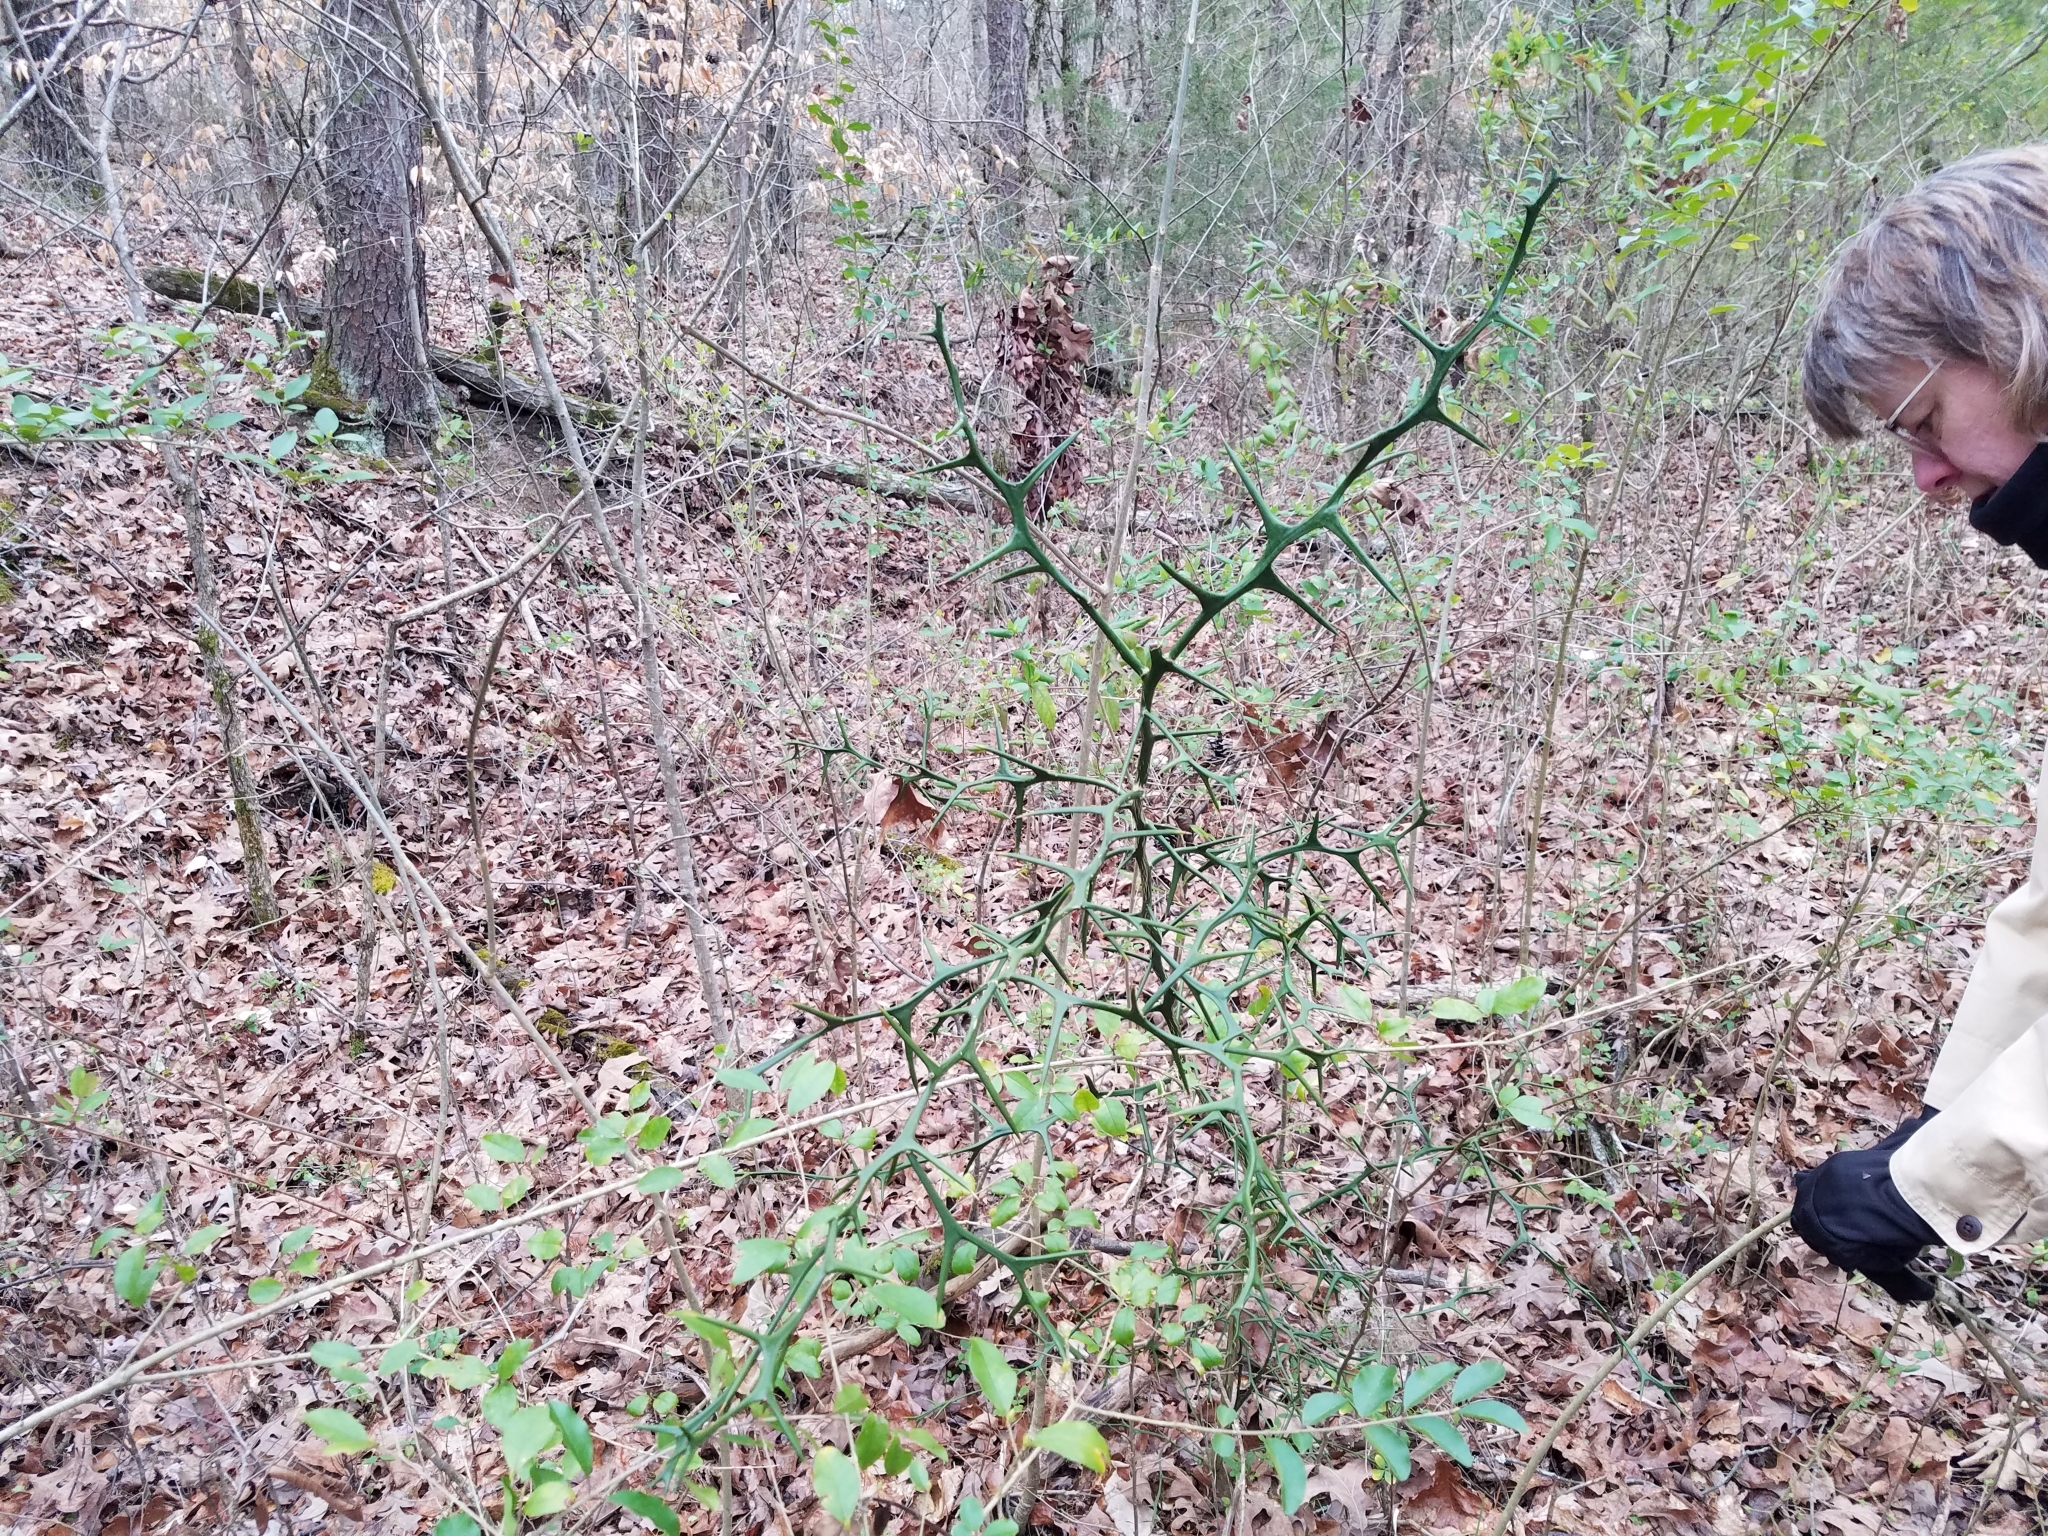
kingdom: Plantae
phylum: Tracheophyta
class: Magnoliopsida
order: Sapindales
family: Rutaceae
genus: Citrus
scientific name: Citrus trifoliata
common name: Japanese bitter-orange
